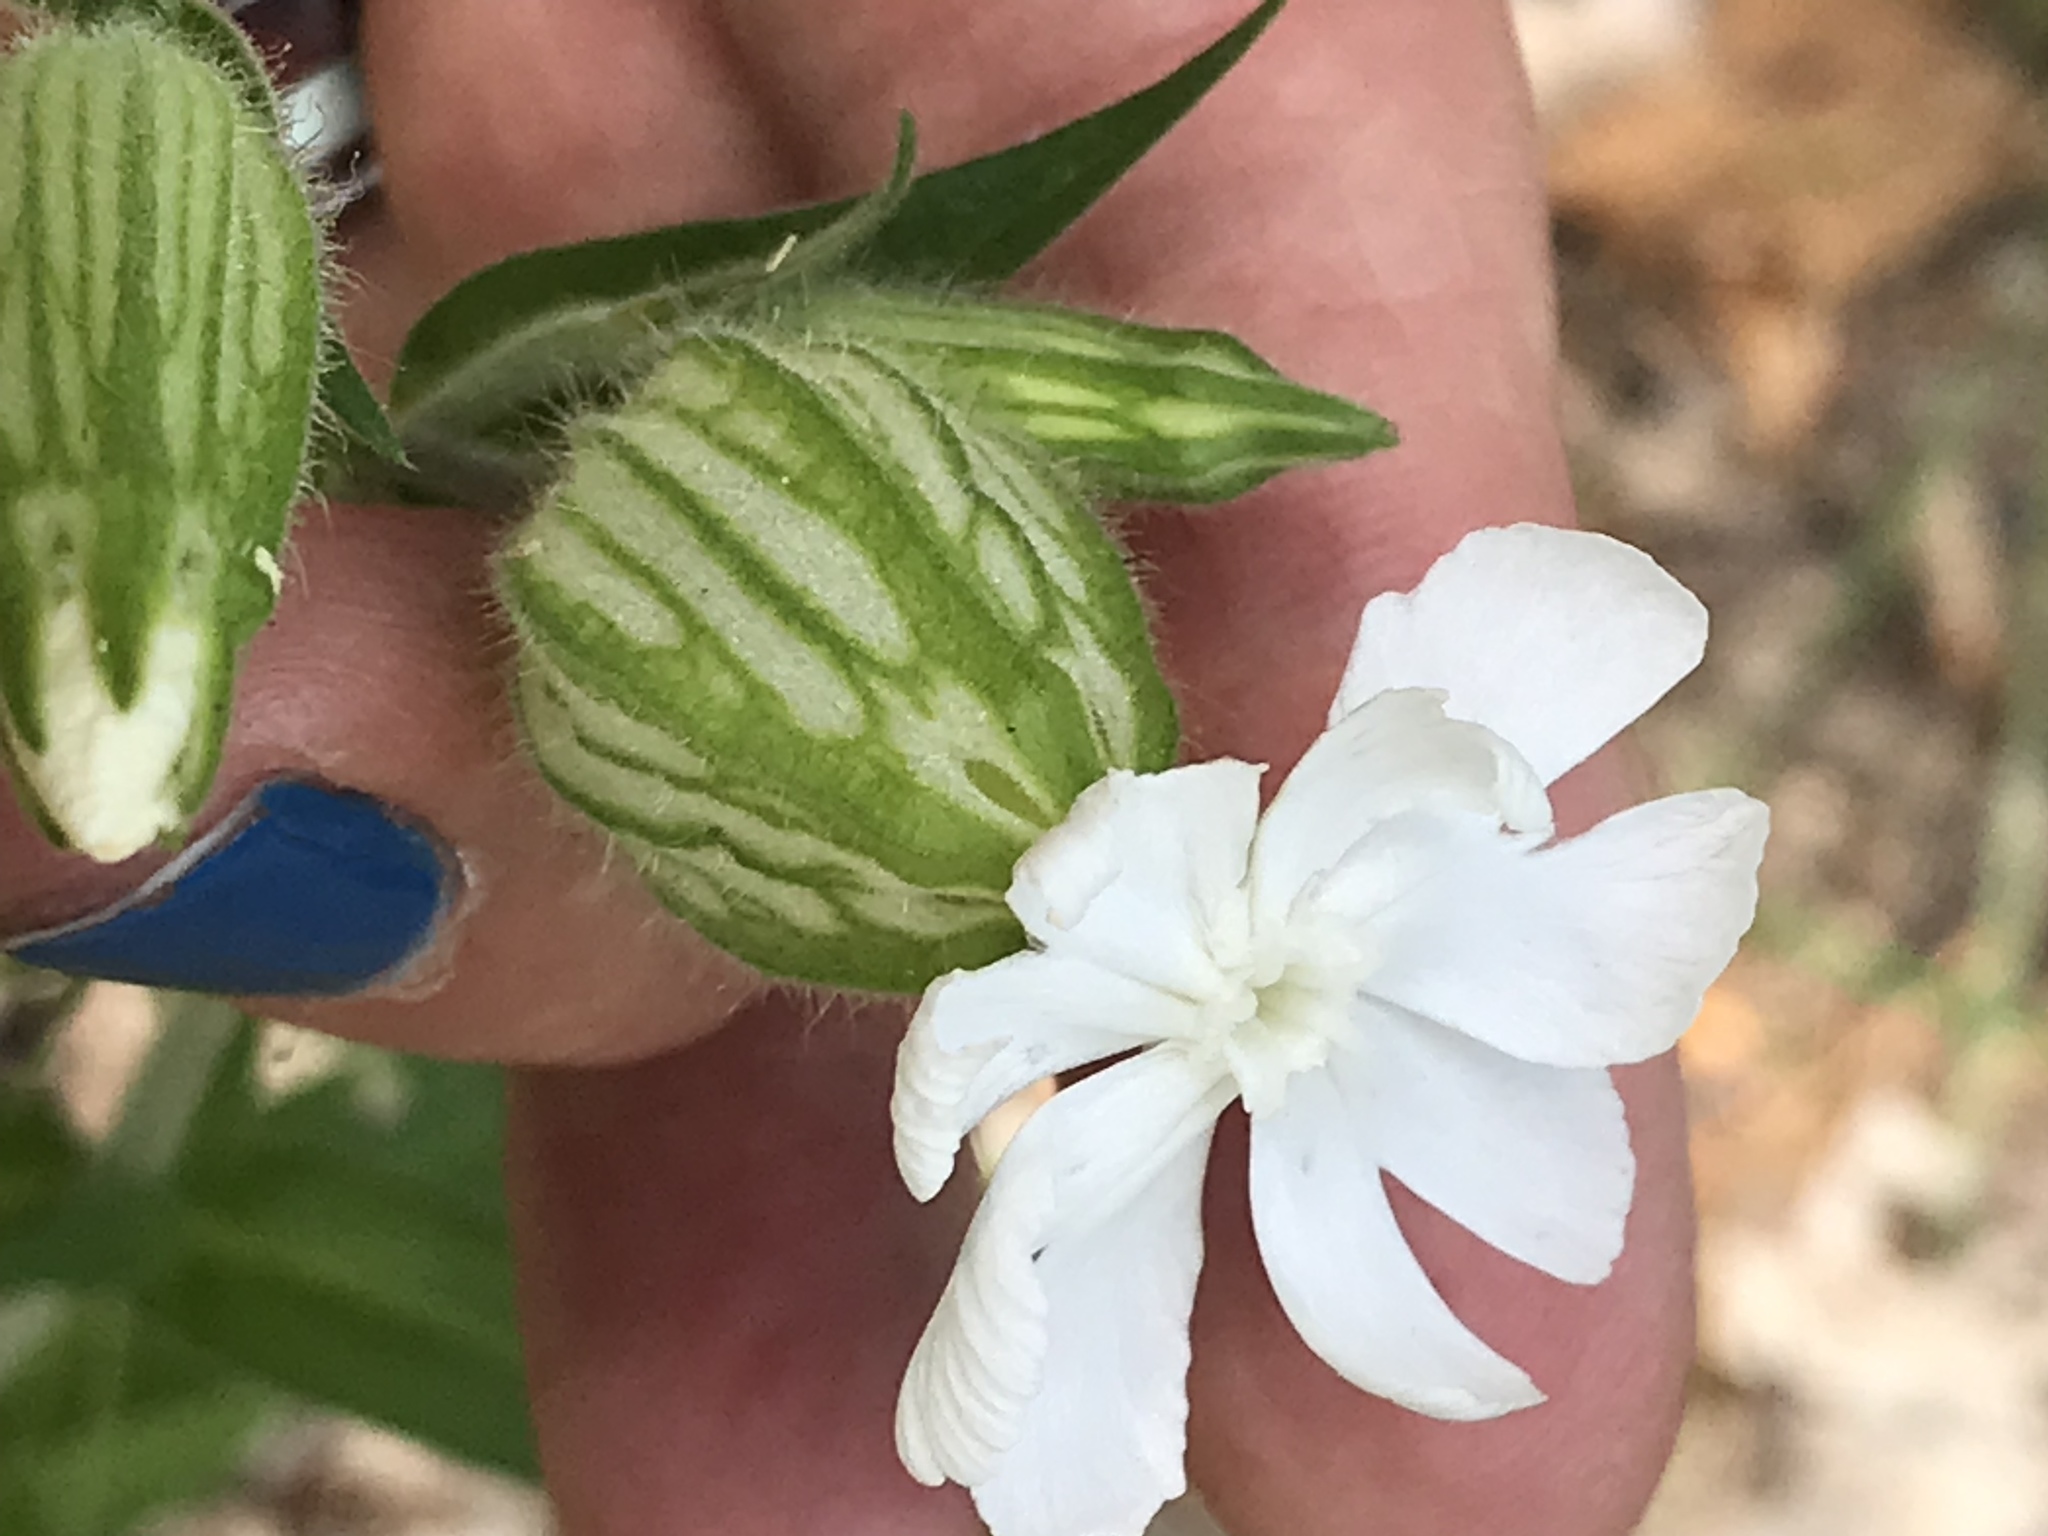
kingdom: Plantae
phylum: Tracheophyta
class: Magnoliopsida
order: Caryophyllales
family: Caryophyllaceae
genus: Silene
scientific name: Silene latifolia
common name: White campion
